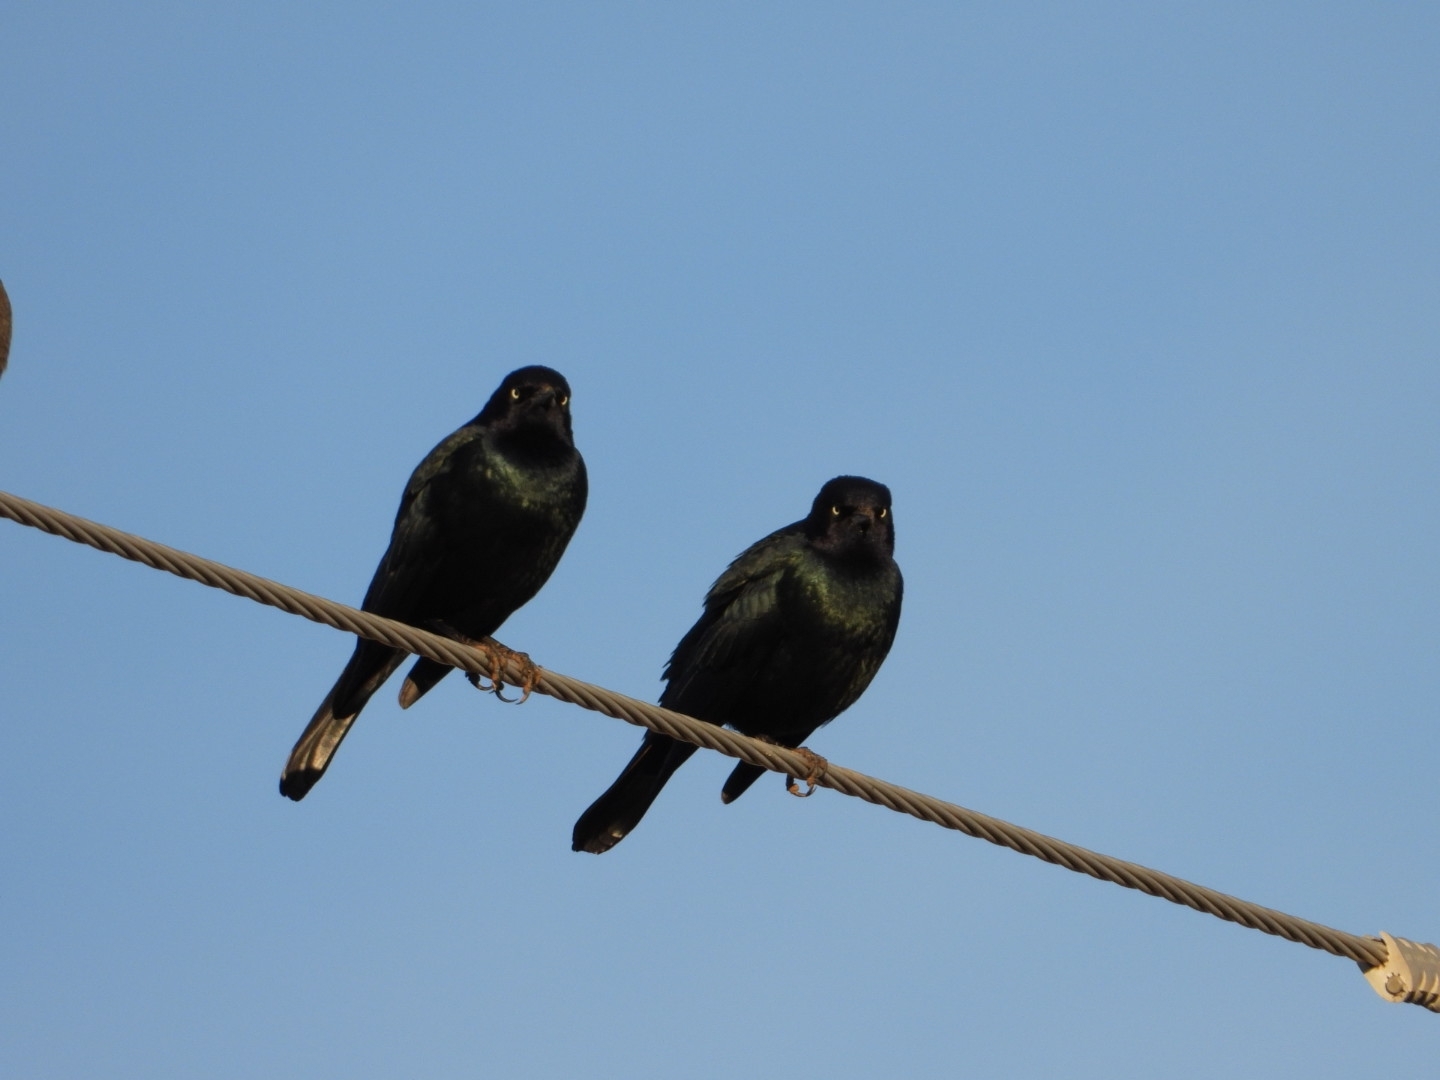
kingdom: Animalia
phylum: Chordata
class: Aves
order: Passeriformes
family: Icteridae
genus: Euphagus
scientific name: Euphagus cyanocephalus
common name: Brewer's blackbird
